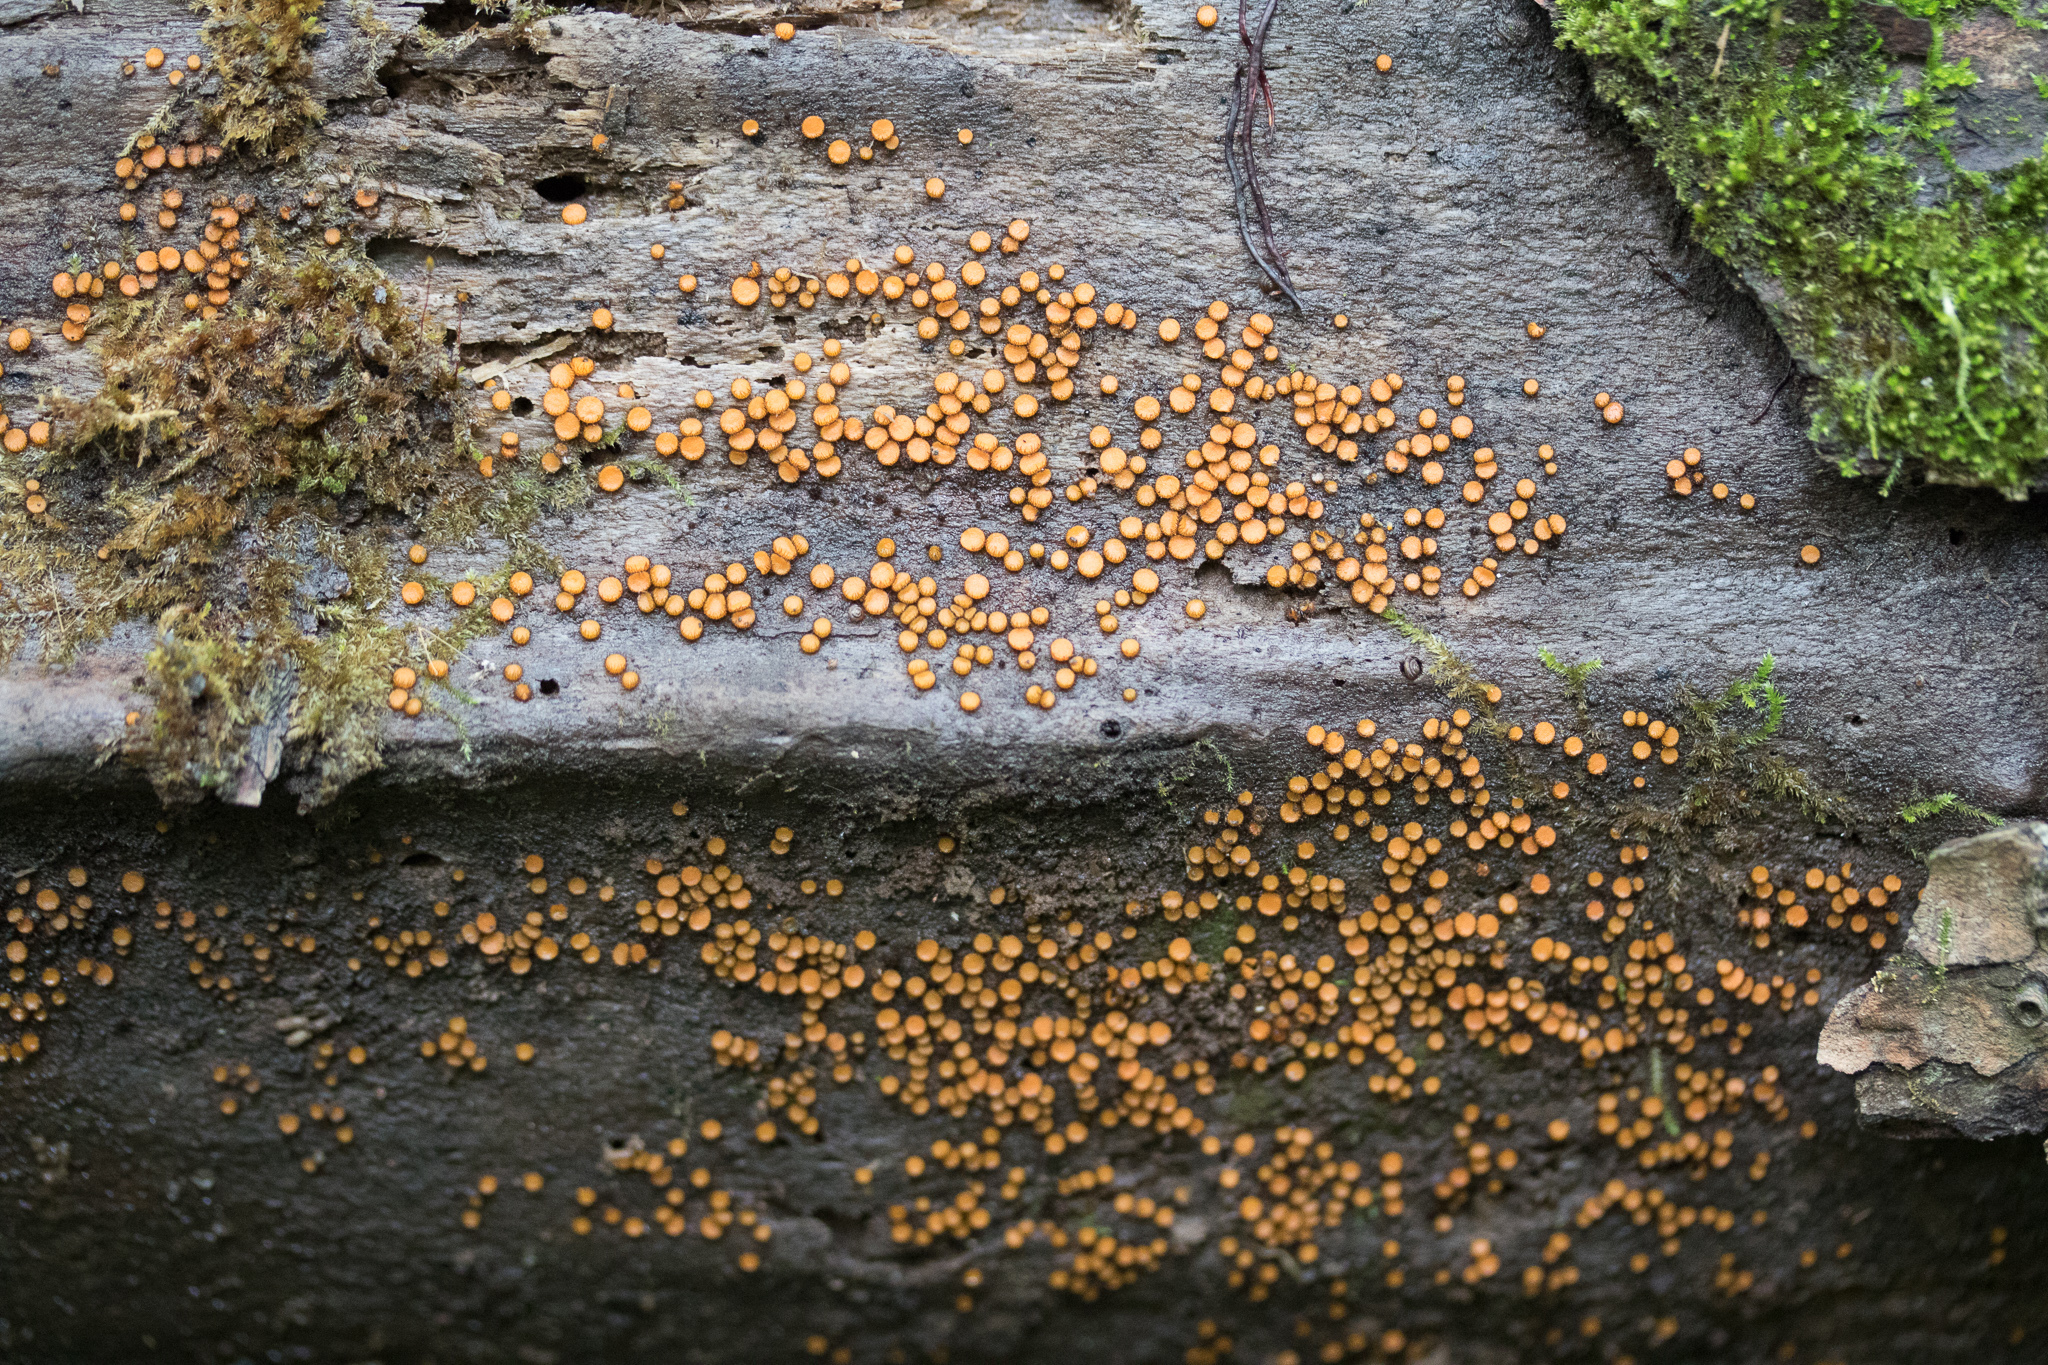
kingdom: Fungi
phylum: Ascomycota
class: Pezizomycetes
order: Pezizales
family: Pyronemataceae
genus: Scutellinia
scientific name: Scutellinia setosa
